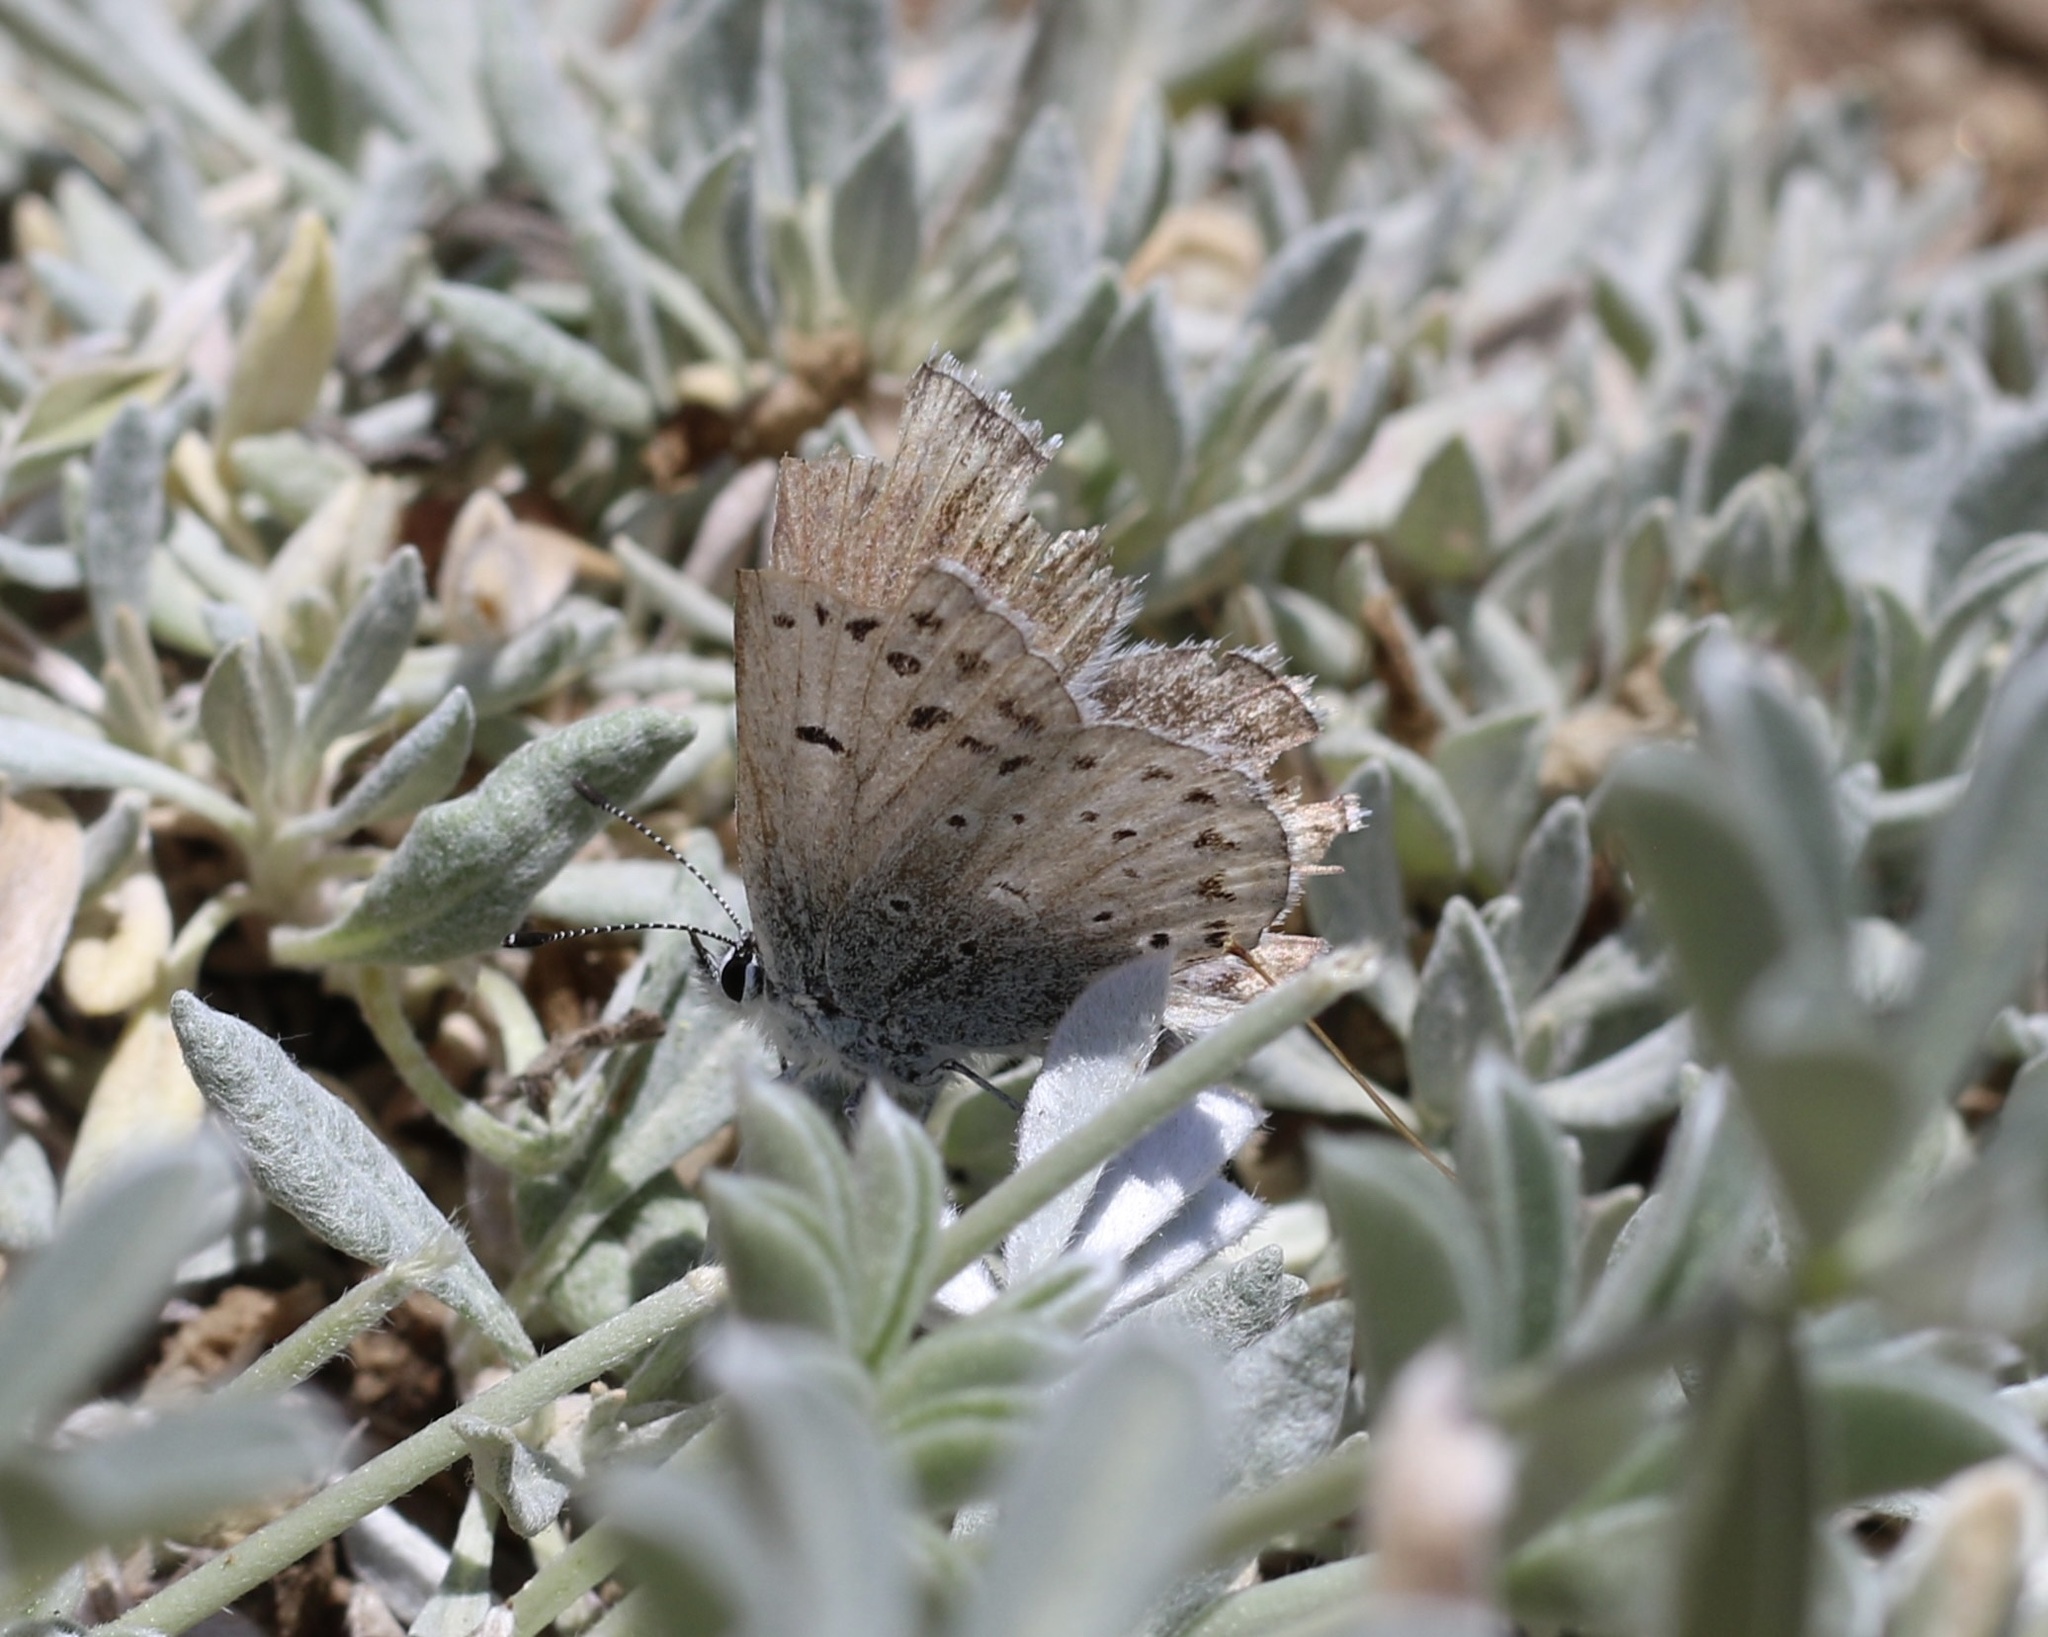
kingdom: Animalia
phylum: Arthropoda
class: Insecta
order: Lepidoptera
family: Lycaenidae
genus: Icaricia
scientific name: Icaricia icarioides
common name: Boisduval's blue
